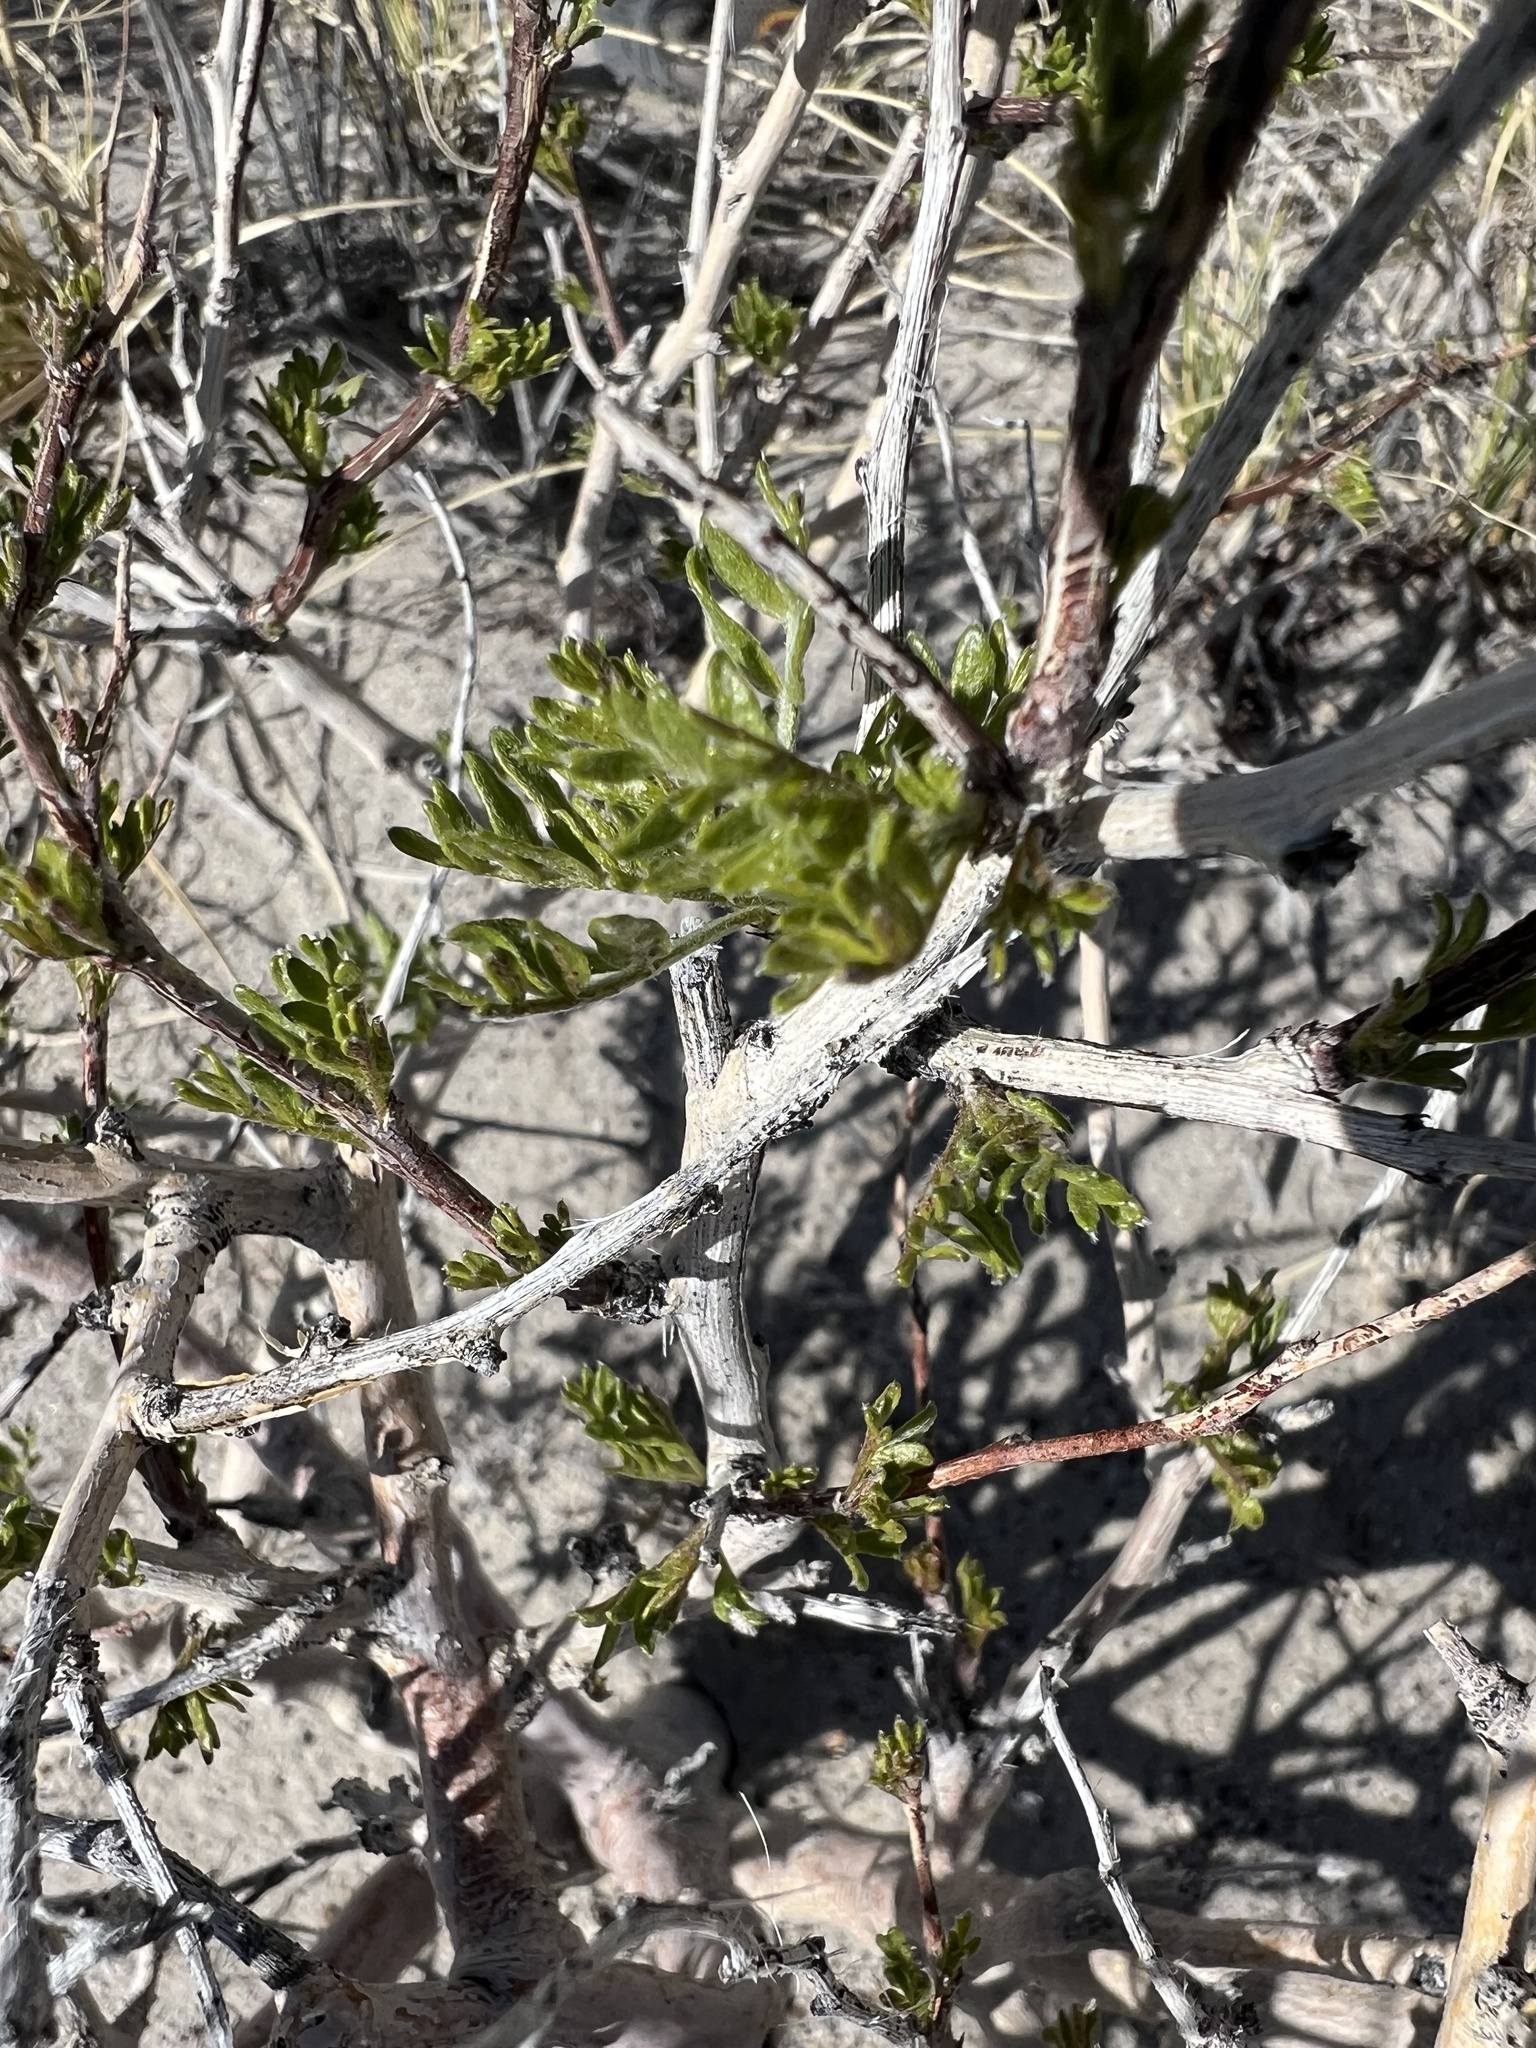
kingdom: Plantae
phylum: Tracheophyta
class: Magnoliopsida
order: Fabales
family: Fabaceae
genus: Psorothamnus
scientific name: Psorothamnus arborescens
